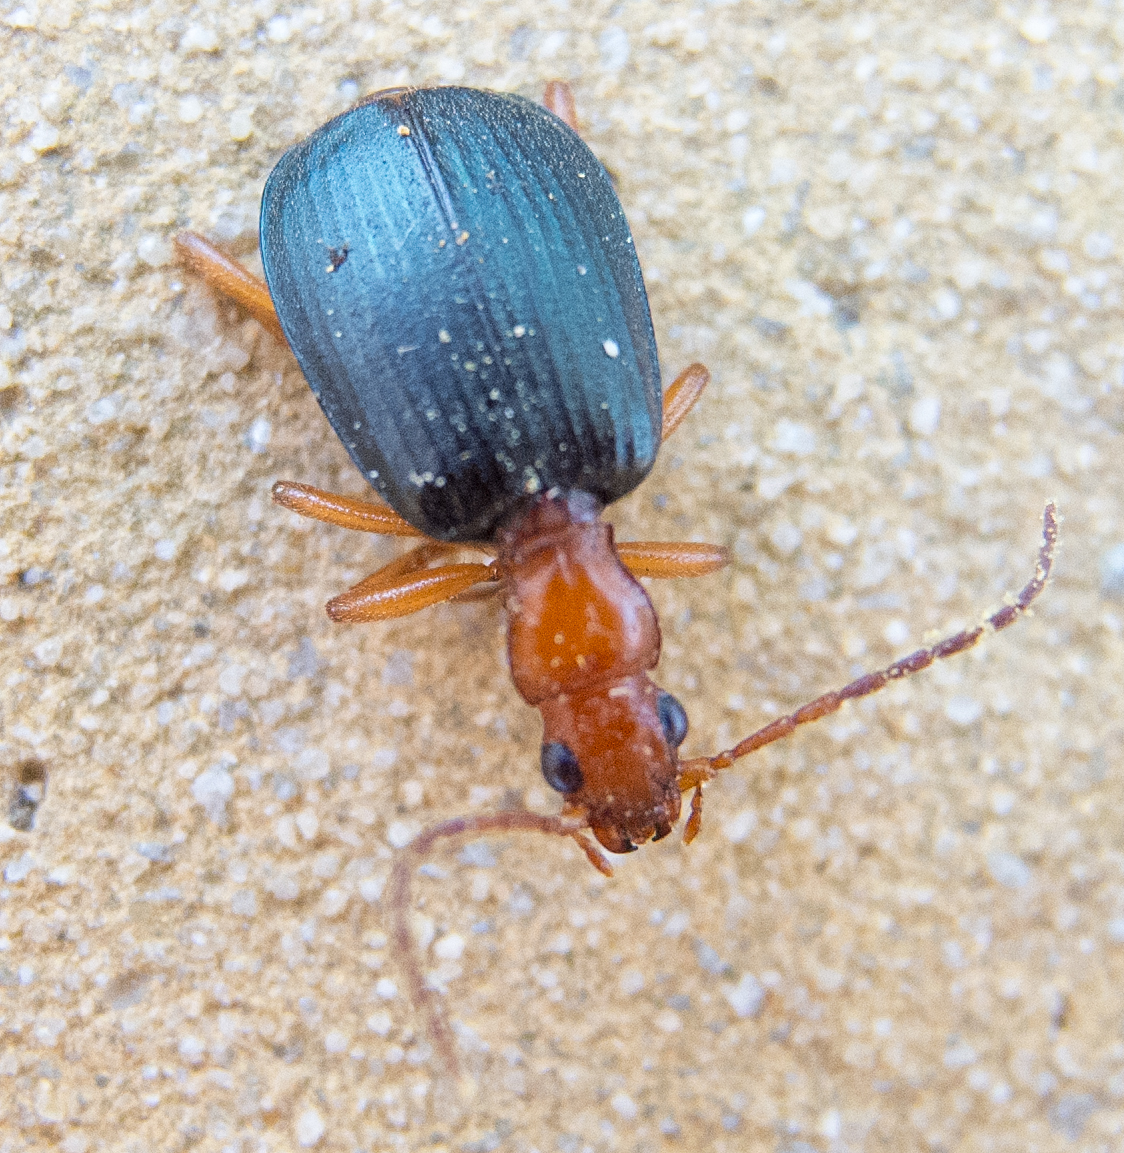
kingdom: Animalia
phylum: Arthropoda
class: Insecta
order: Coleoptera
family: Carabidae
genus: Brachinus
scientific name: Brachinus ejaculans
